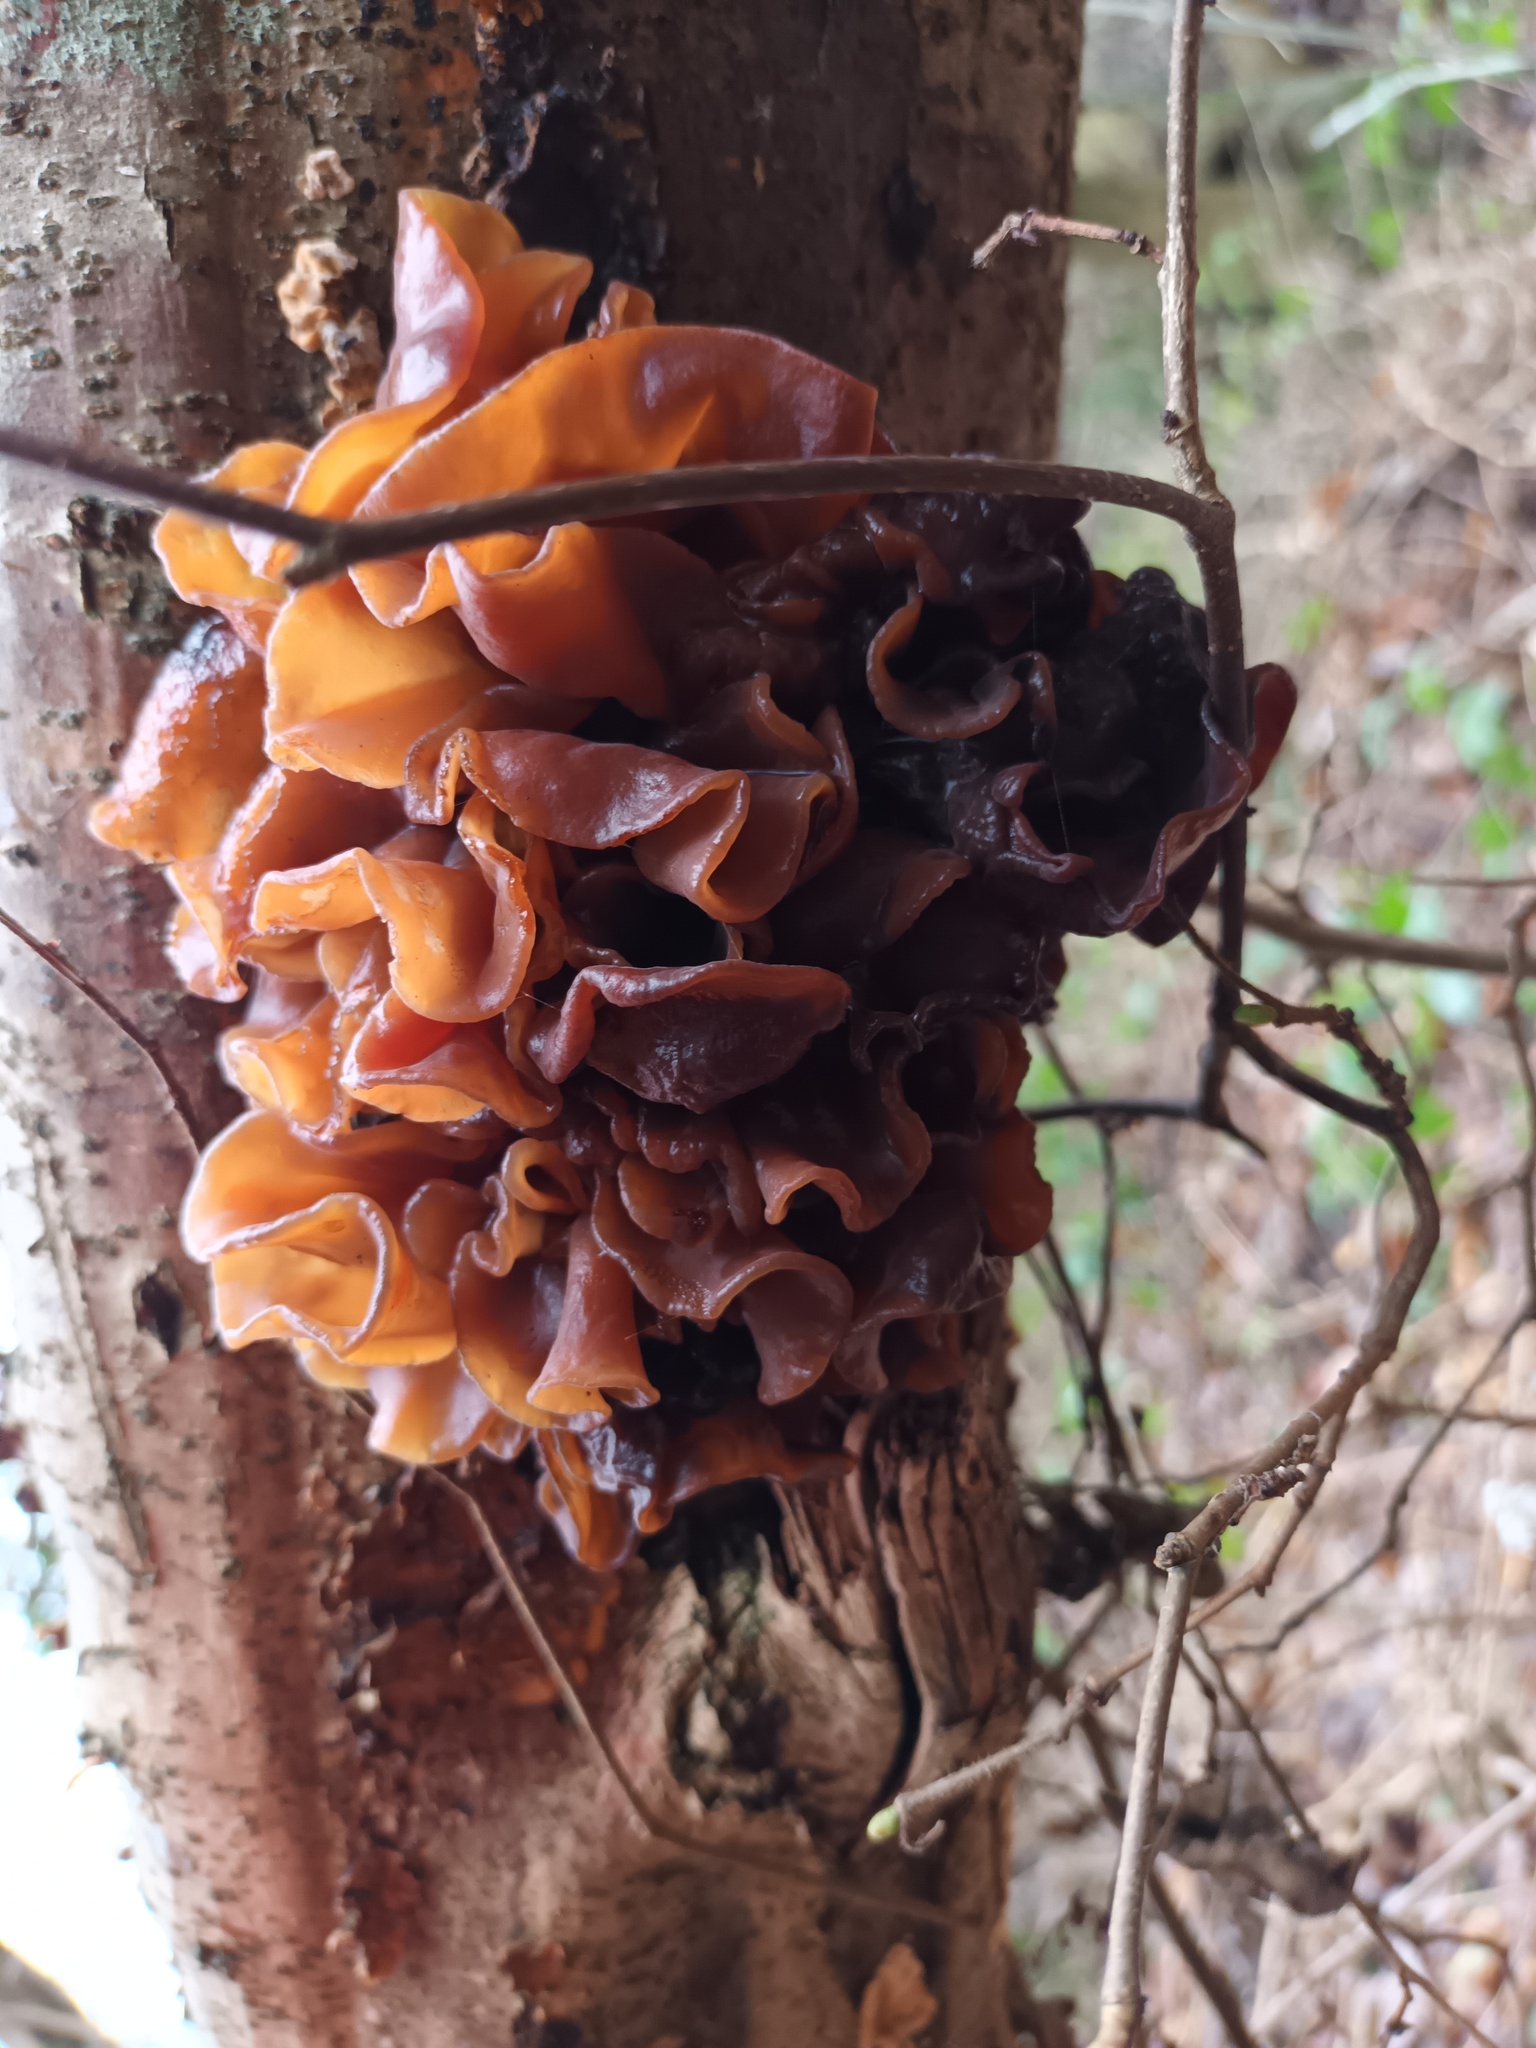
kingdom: Fungi
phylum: Basidiomycota
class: Tremellomycetes
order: Tremellales
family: Tremellaceae
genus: Phaeotremella
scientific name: Phaeotremella frondosa
